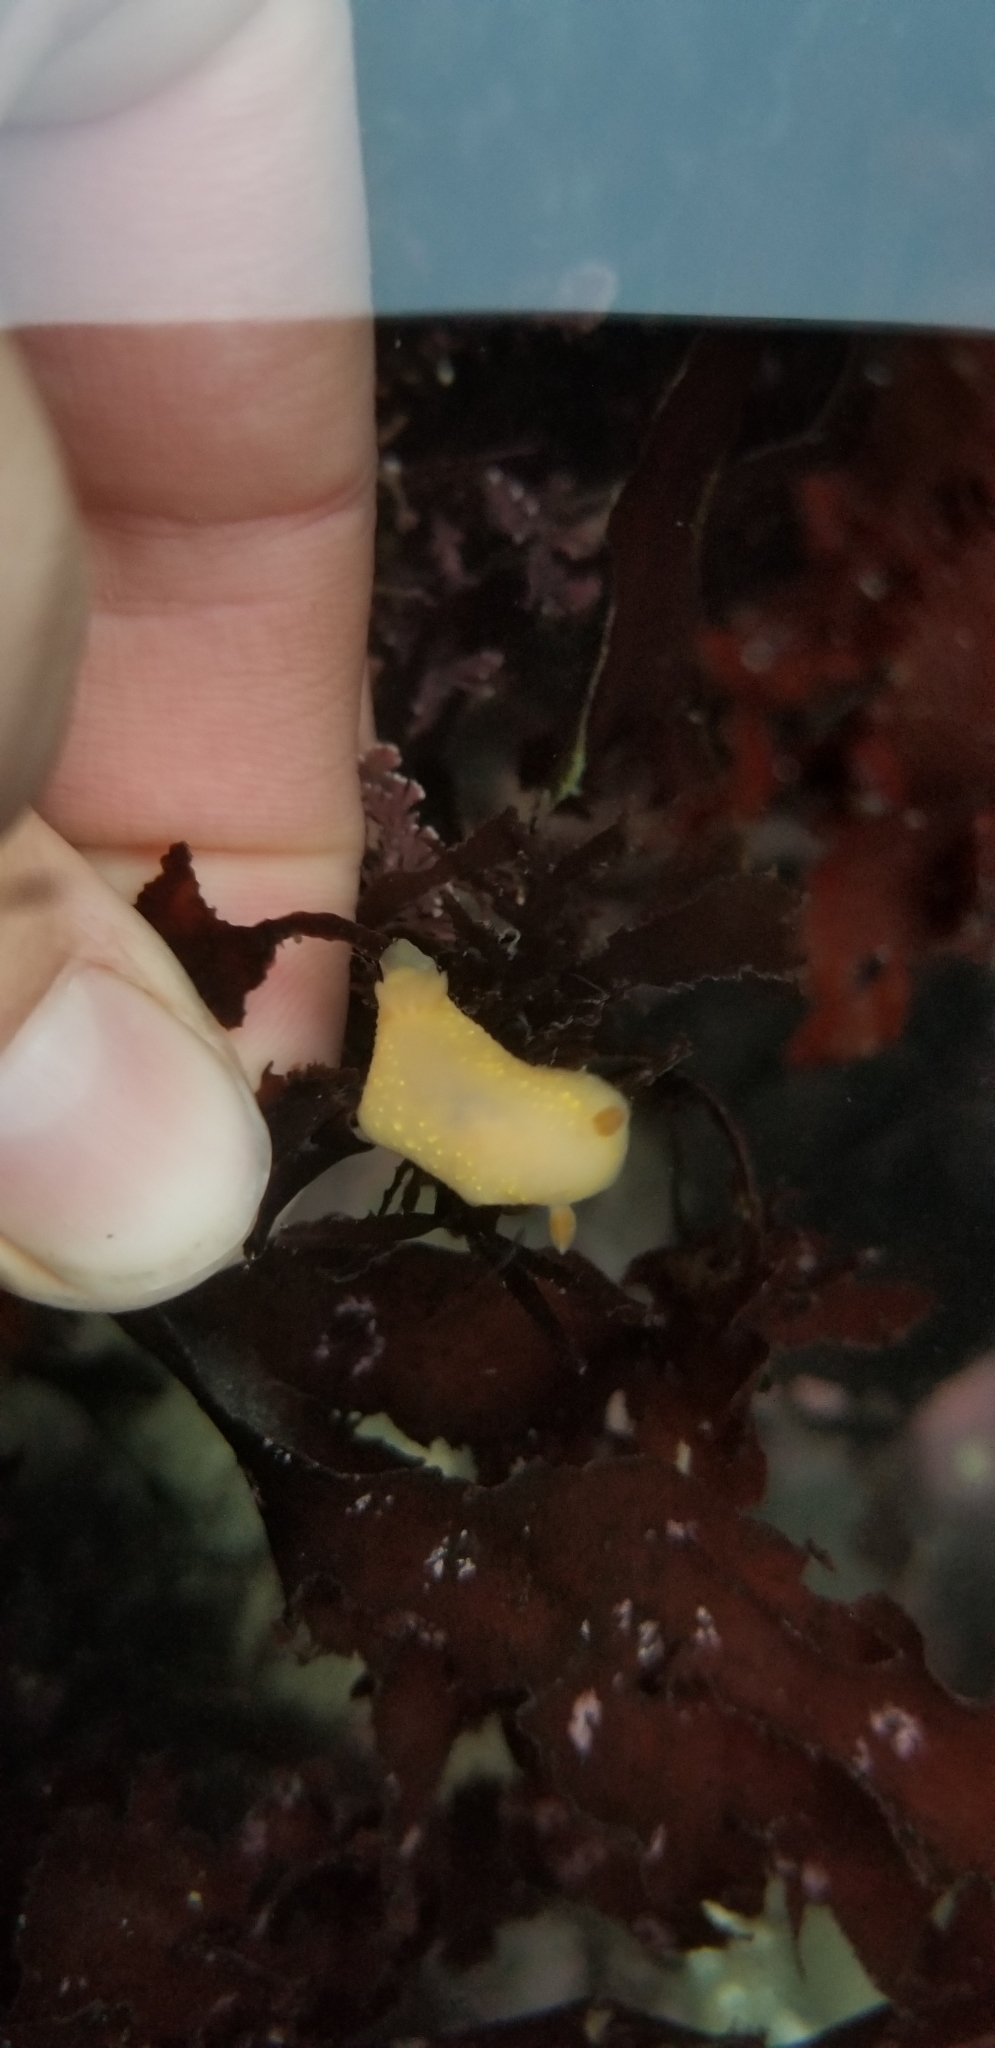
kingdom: Animalia
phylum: Mollusca
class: Gastropoda
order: Nudibranchia
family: Cadlinidae
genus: Cadlina
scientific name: Cadlina modesta
